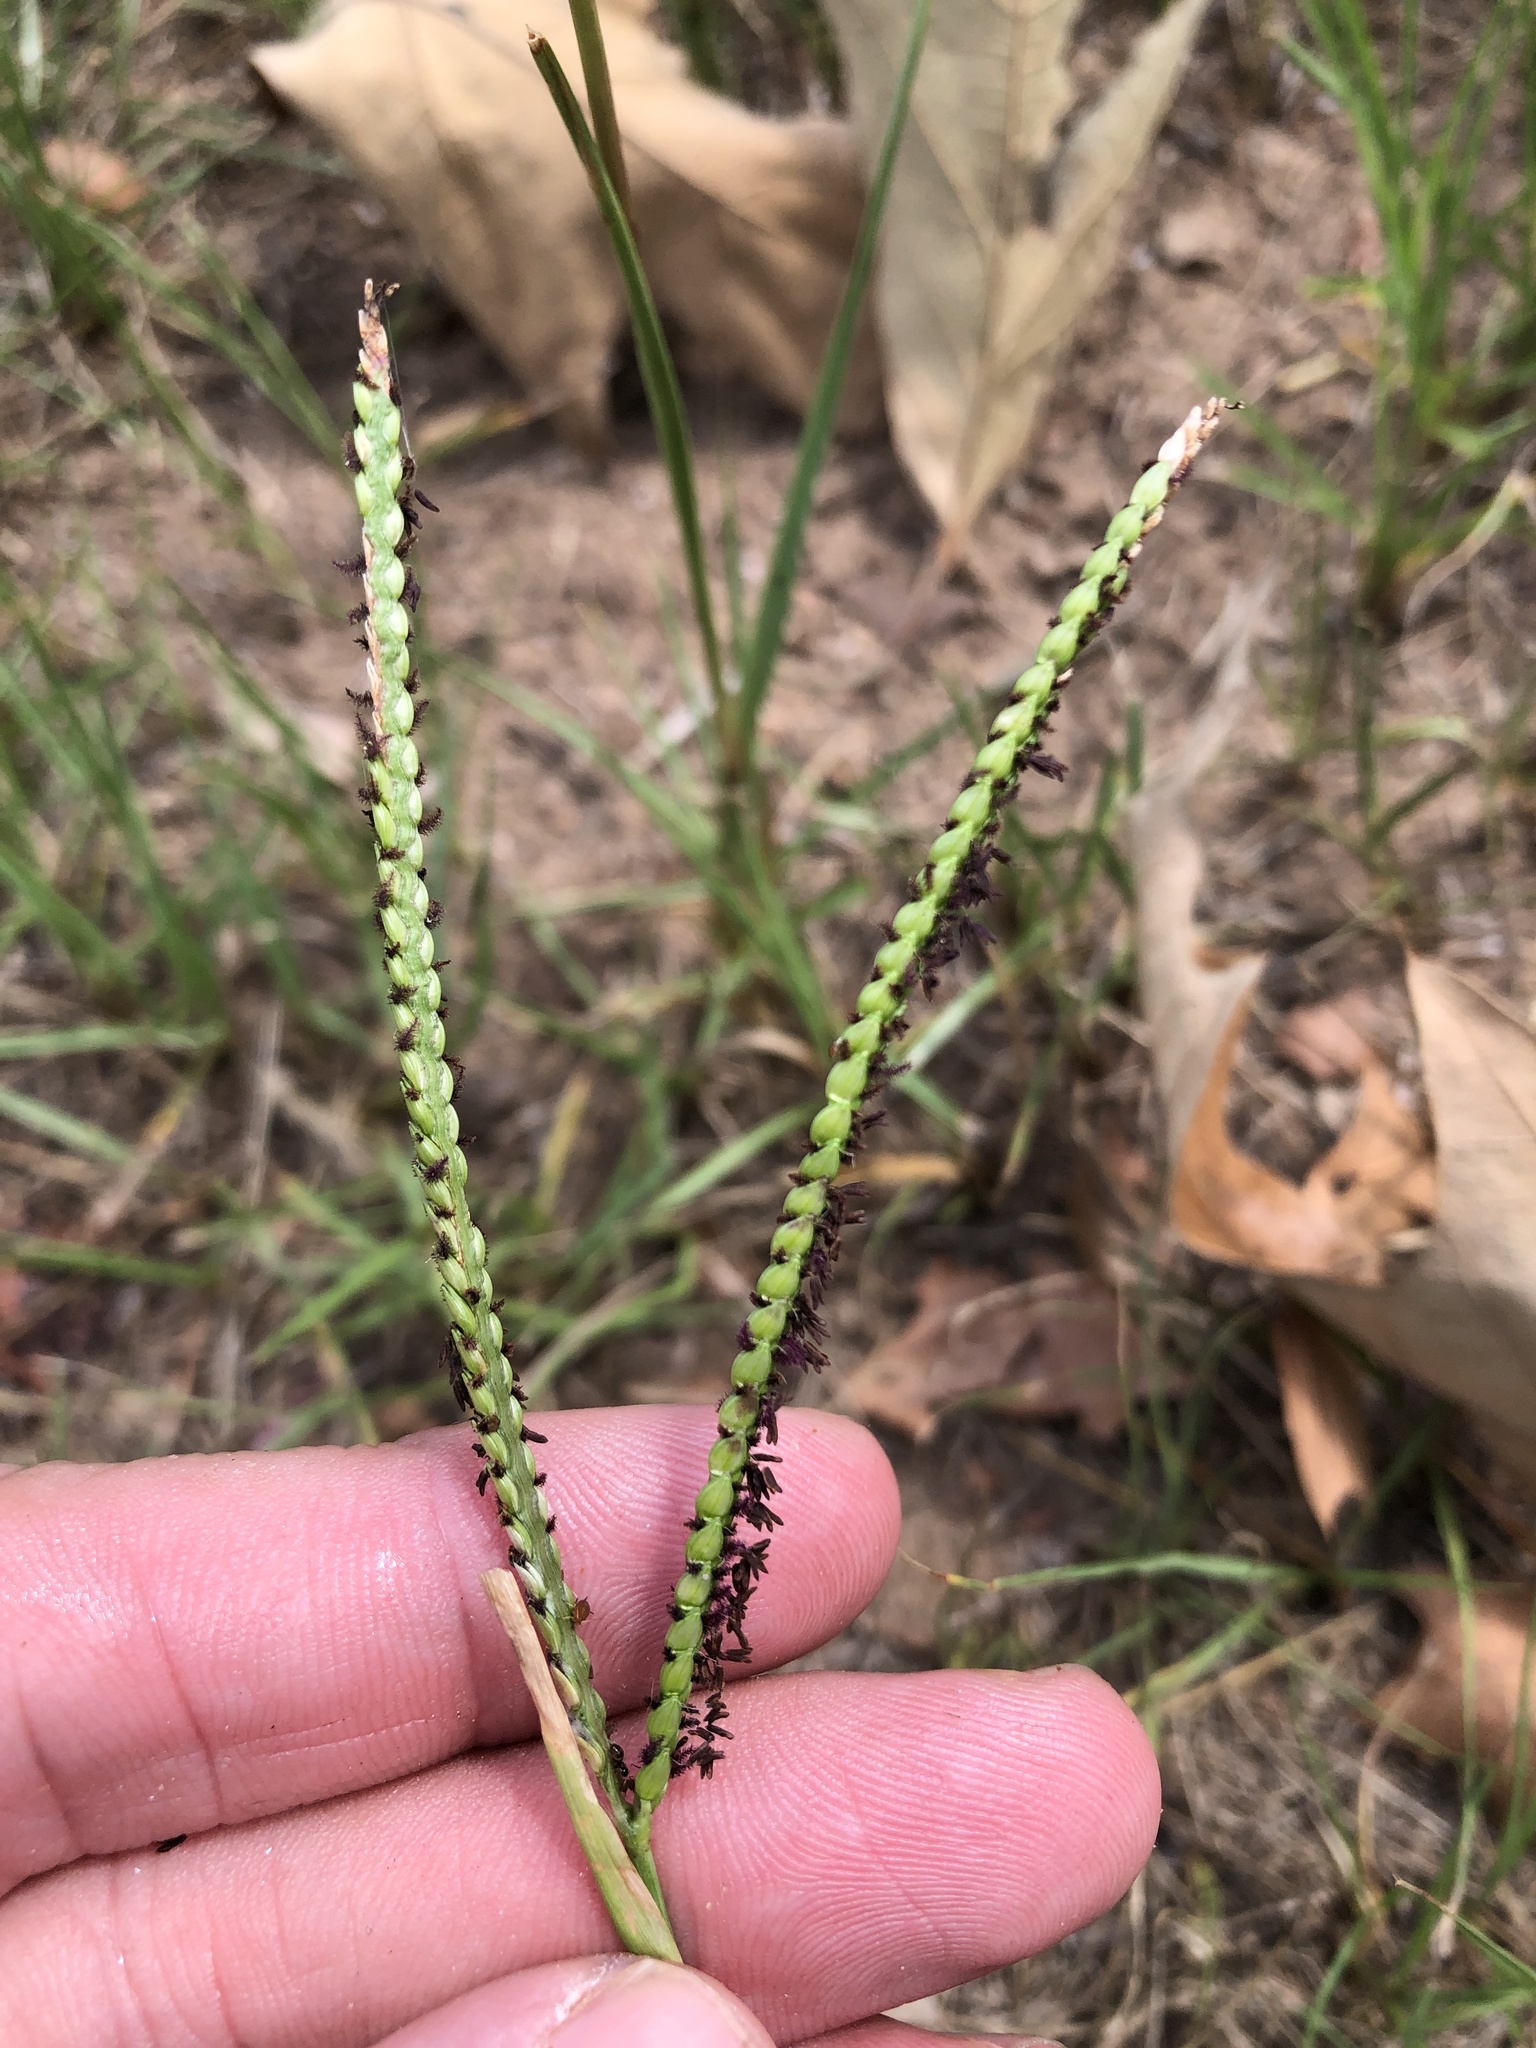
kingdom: Plantae
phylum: Tracheophyta
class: Liliopsida
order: Poales
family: Poaceae
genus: Paspalum
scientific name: Paspalum notatum
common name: Bahiagrass
